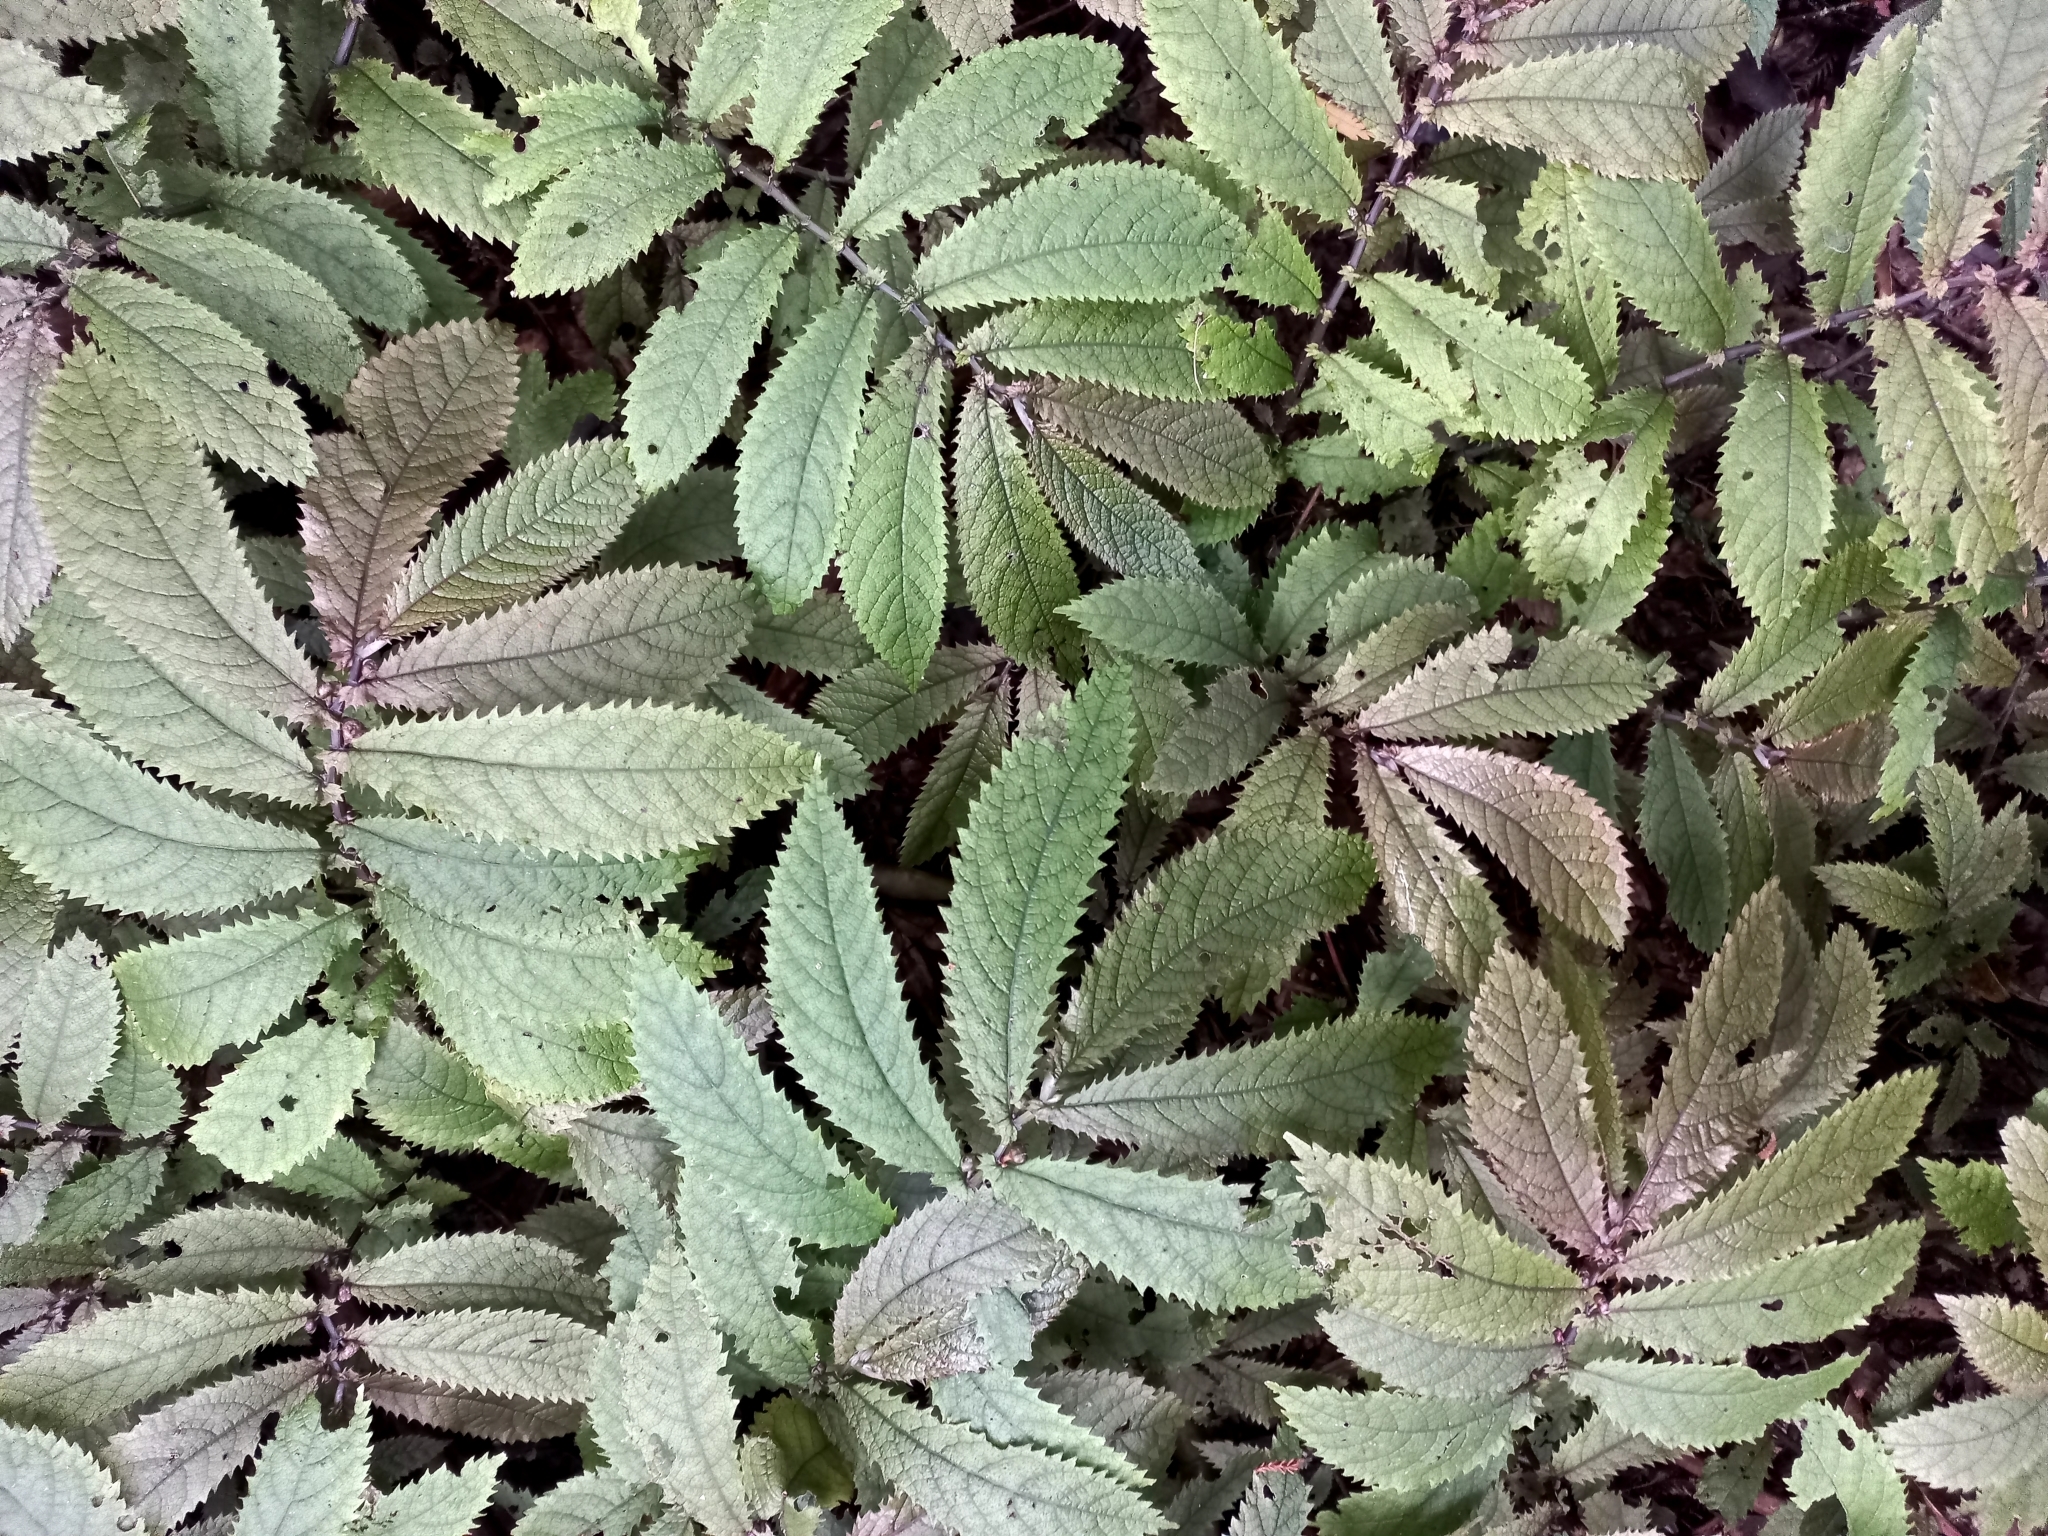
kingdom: Plantae
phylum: Tracheophyta
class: Magnoliopsida
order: Rosales
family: Urticaceae
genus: Elatostema
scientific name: Elatostema rugosum
